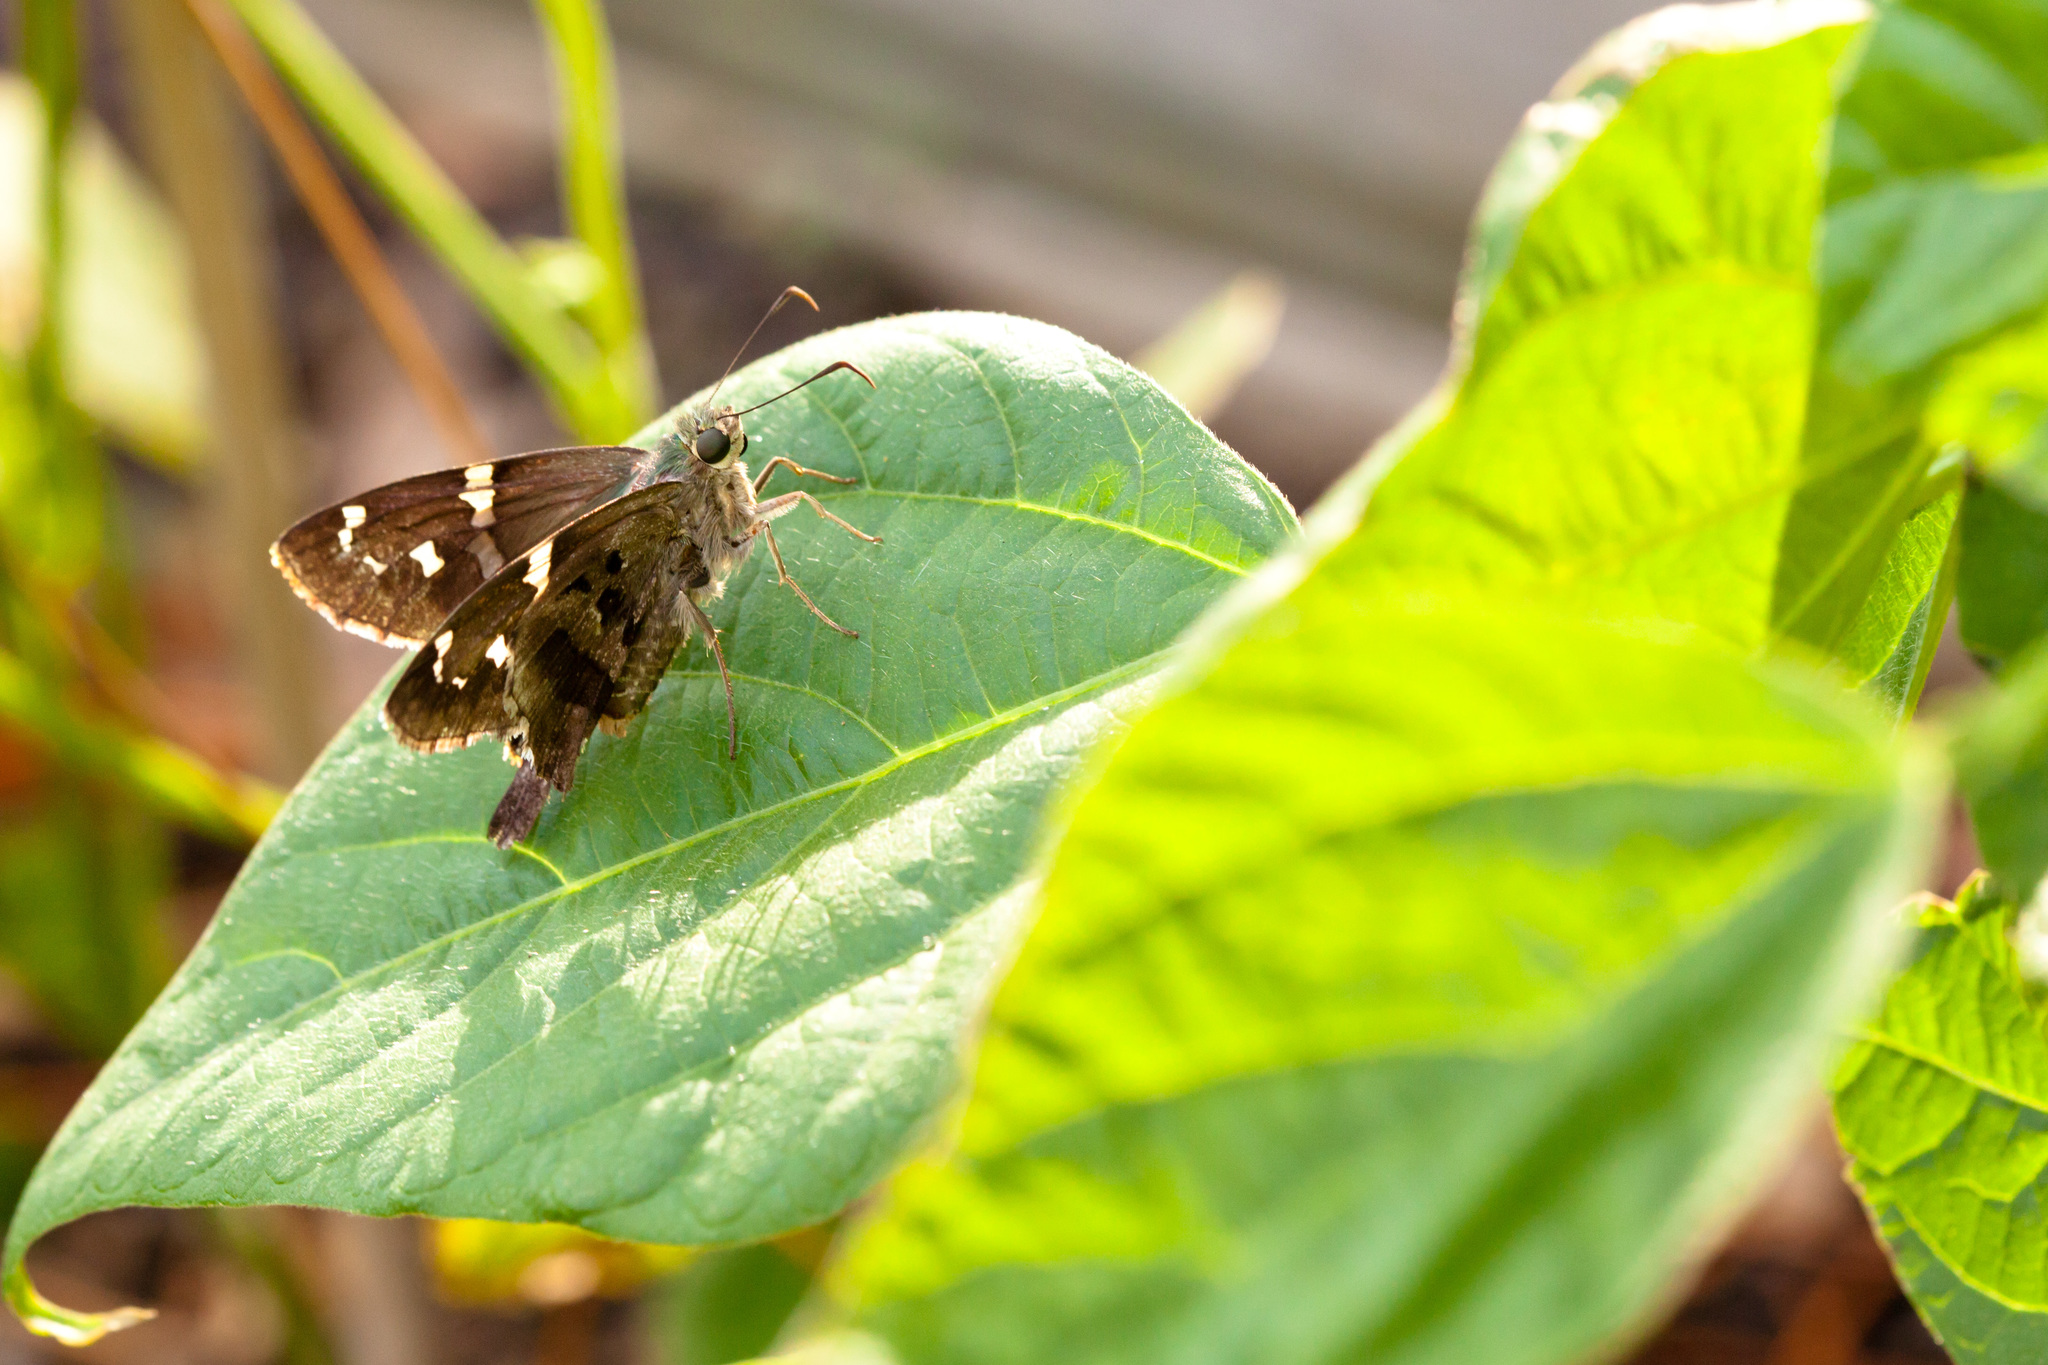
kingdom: Animalia
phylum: Arthropoda
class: Insecta
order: Lepidoptera
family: Hesperiidae
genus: Urbanus
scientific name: Urbanus proteus
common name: Long-tailed skipper
